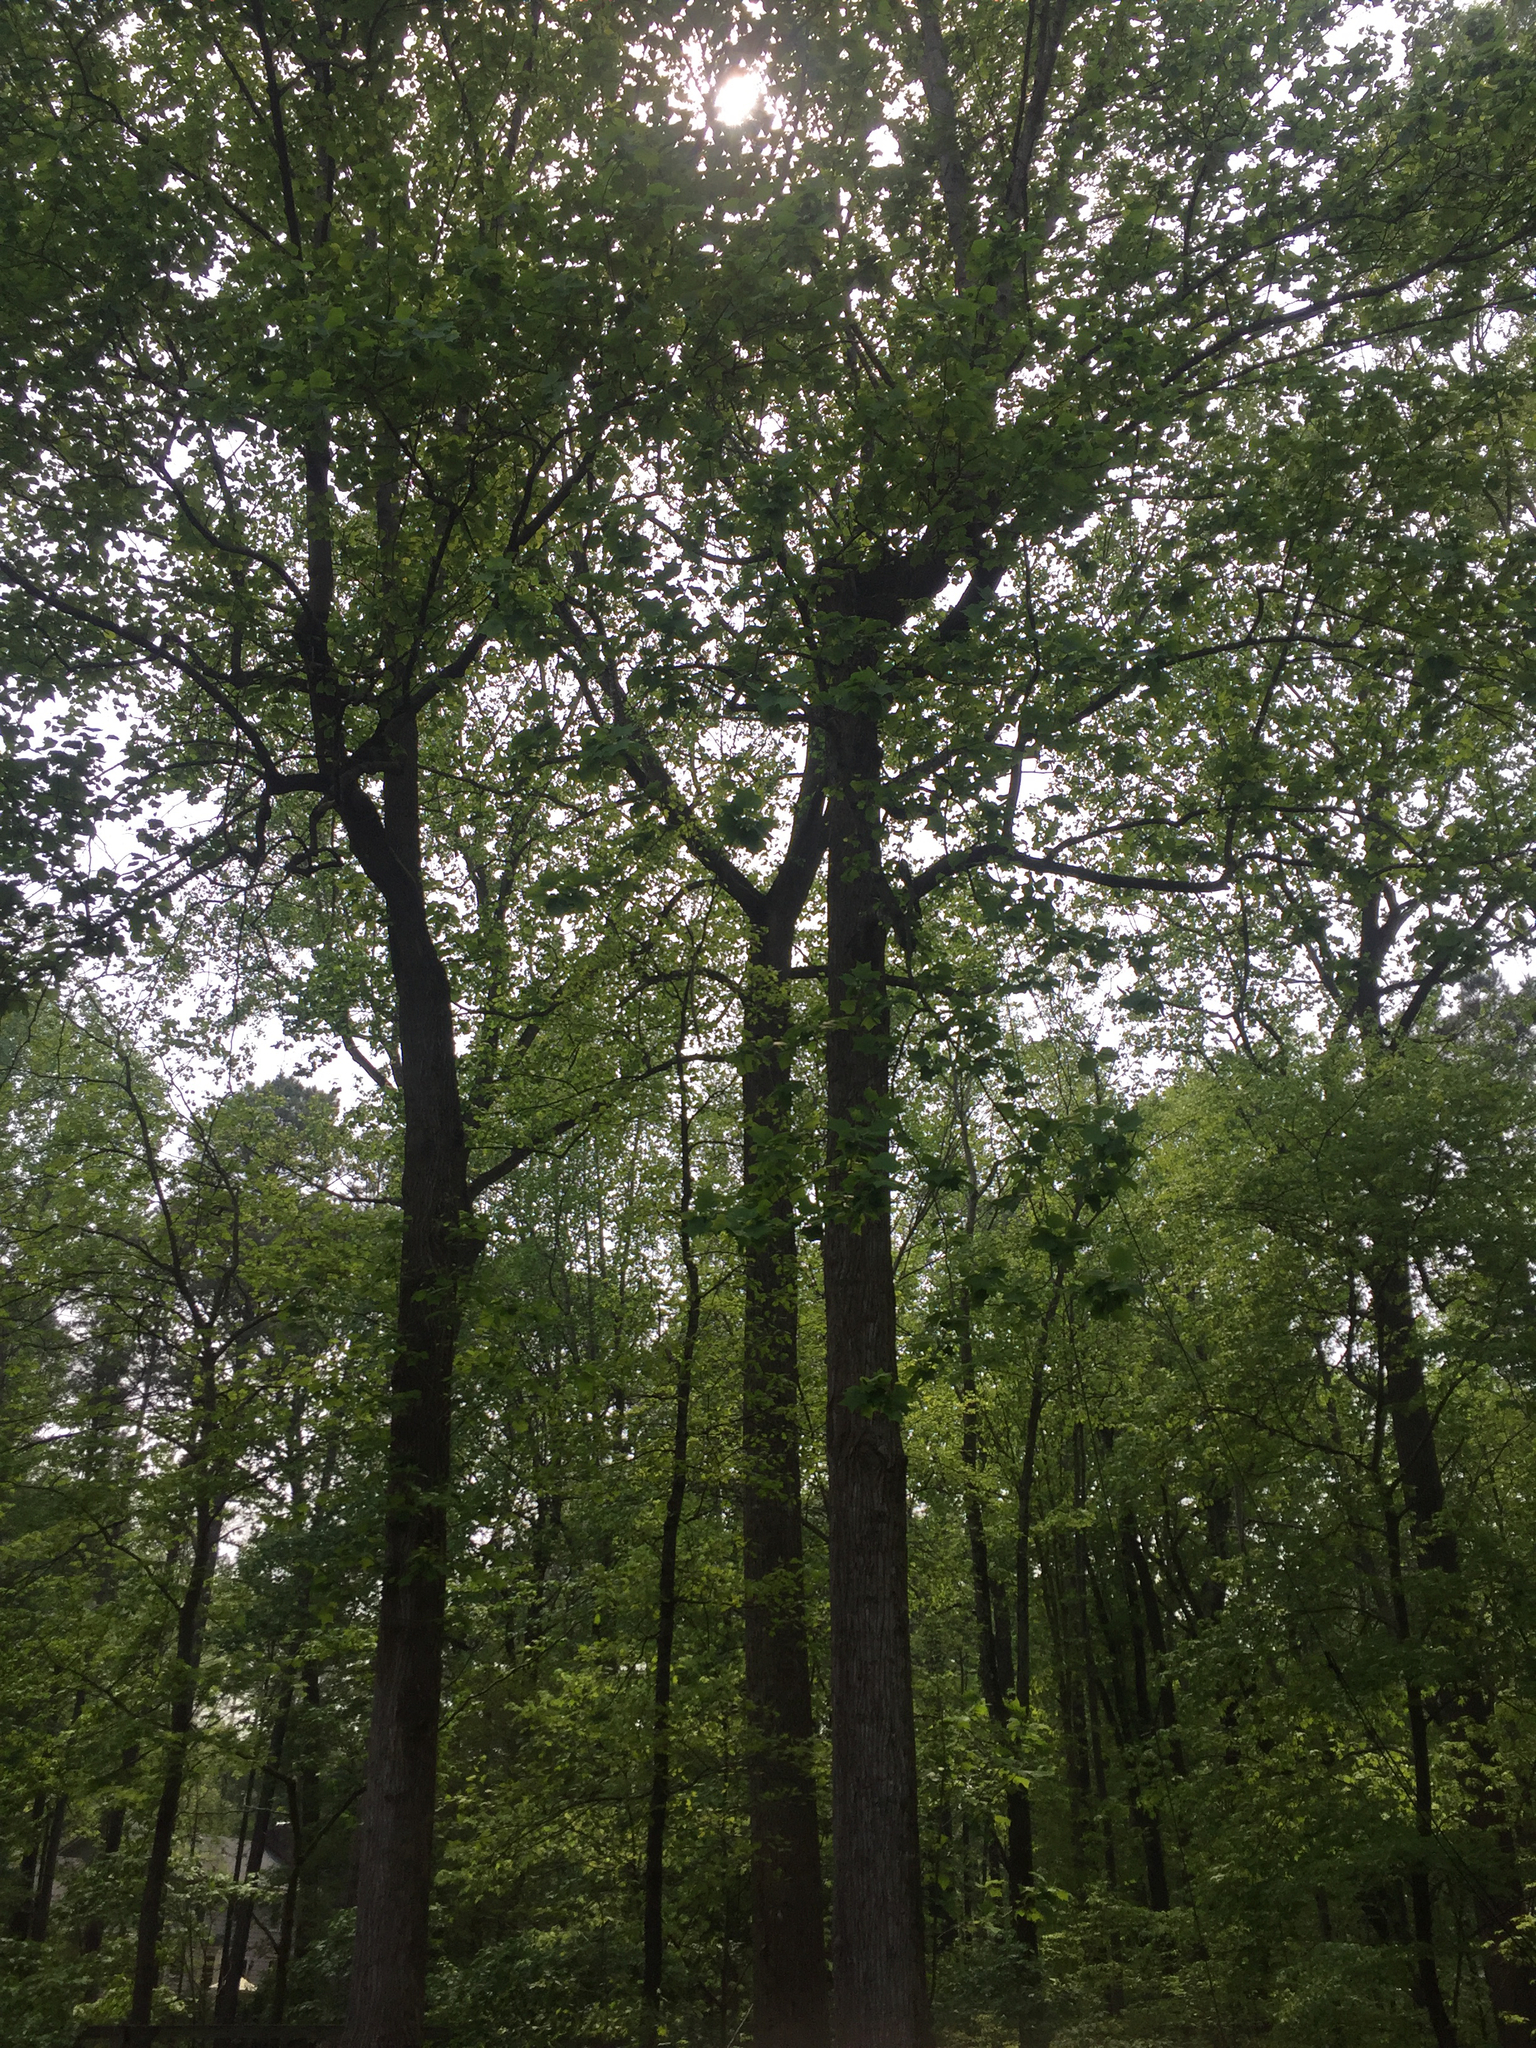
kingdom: Plantae
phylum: Tracheophyta
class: Magnoliopsida
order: Magnoliales
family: Magnoliaceae
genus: Liriodendron
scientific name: Liriodendron tulipifera
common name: Tulip tree
